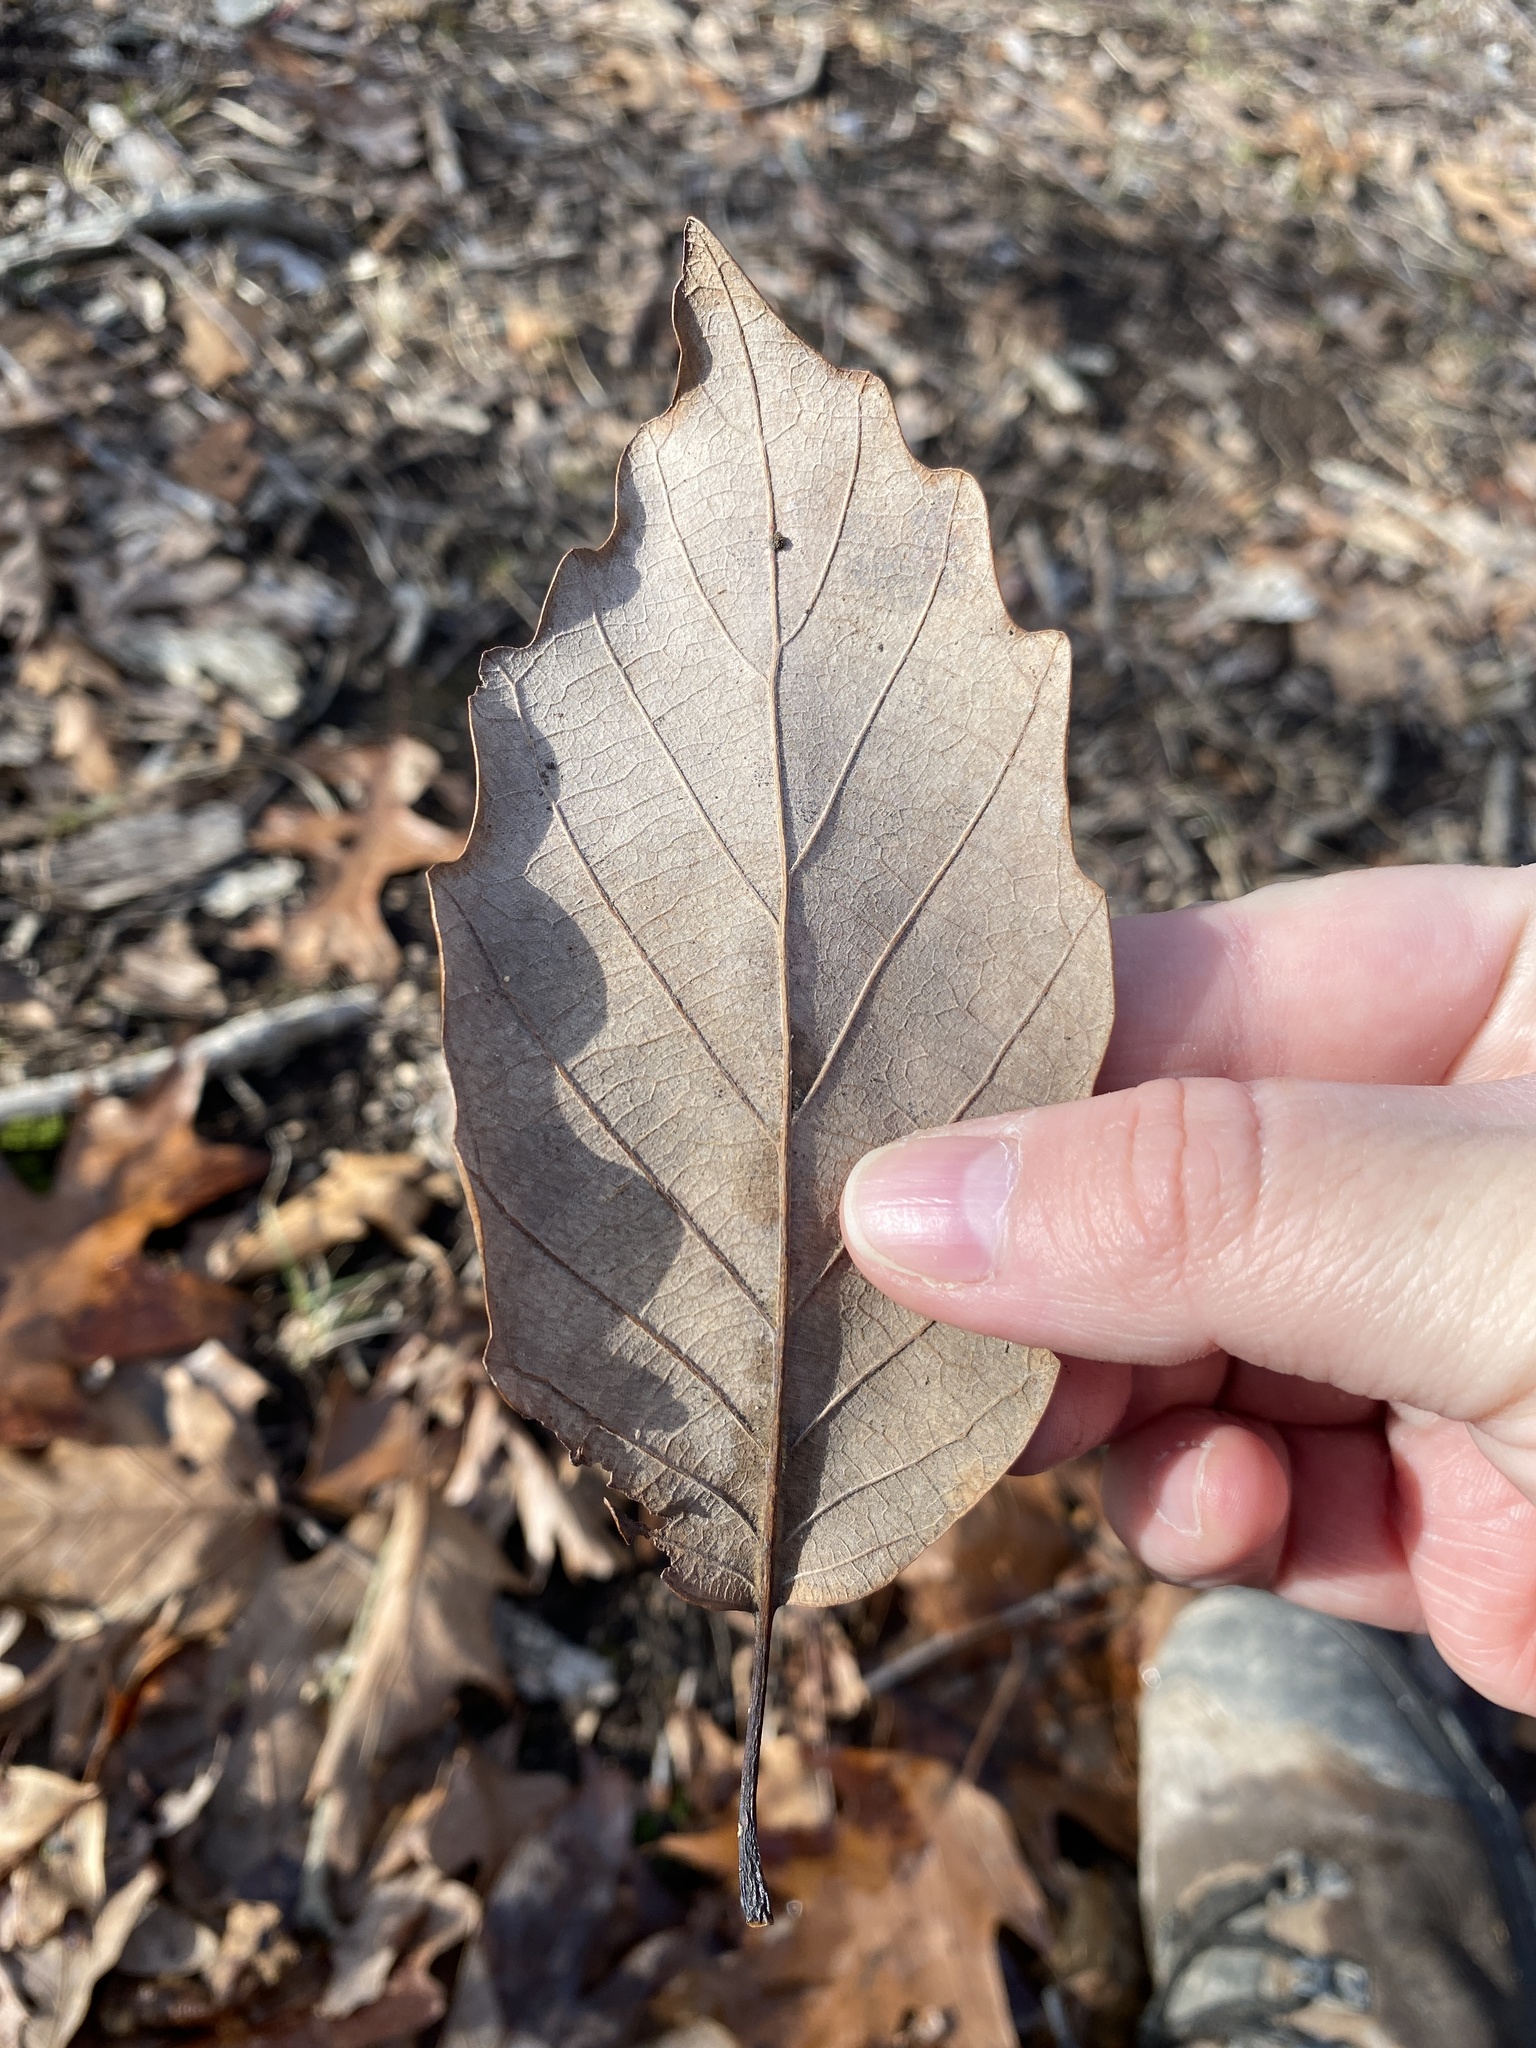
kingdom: Plantae
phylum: Tracheophyta
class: Magnoliopsida
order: Fagales
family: Fagaceae
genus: Quercus
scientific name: Quercus montana
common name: Chestnut oak
